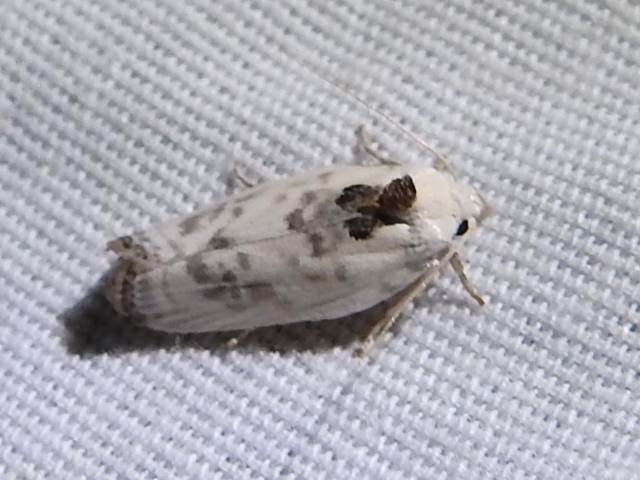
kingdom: Animalia
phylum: Arthropoda
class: Insecta
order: Lepidoptera
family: Depressariidae
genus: Antaeotricha
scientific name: Antaeotricha leucillana
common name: Pale gray bird-dropping moth
